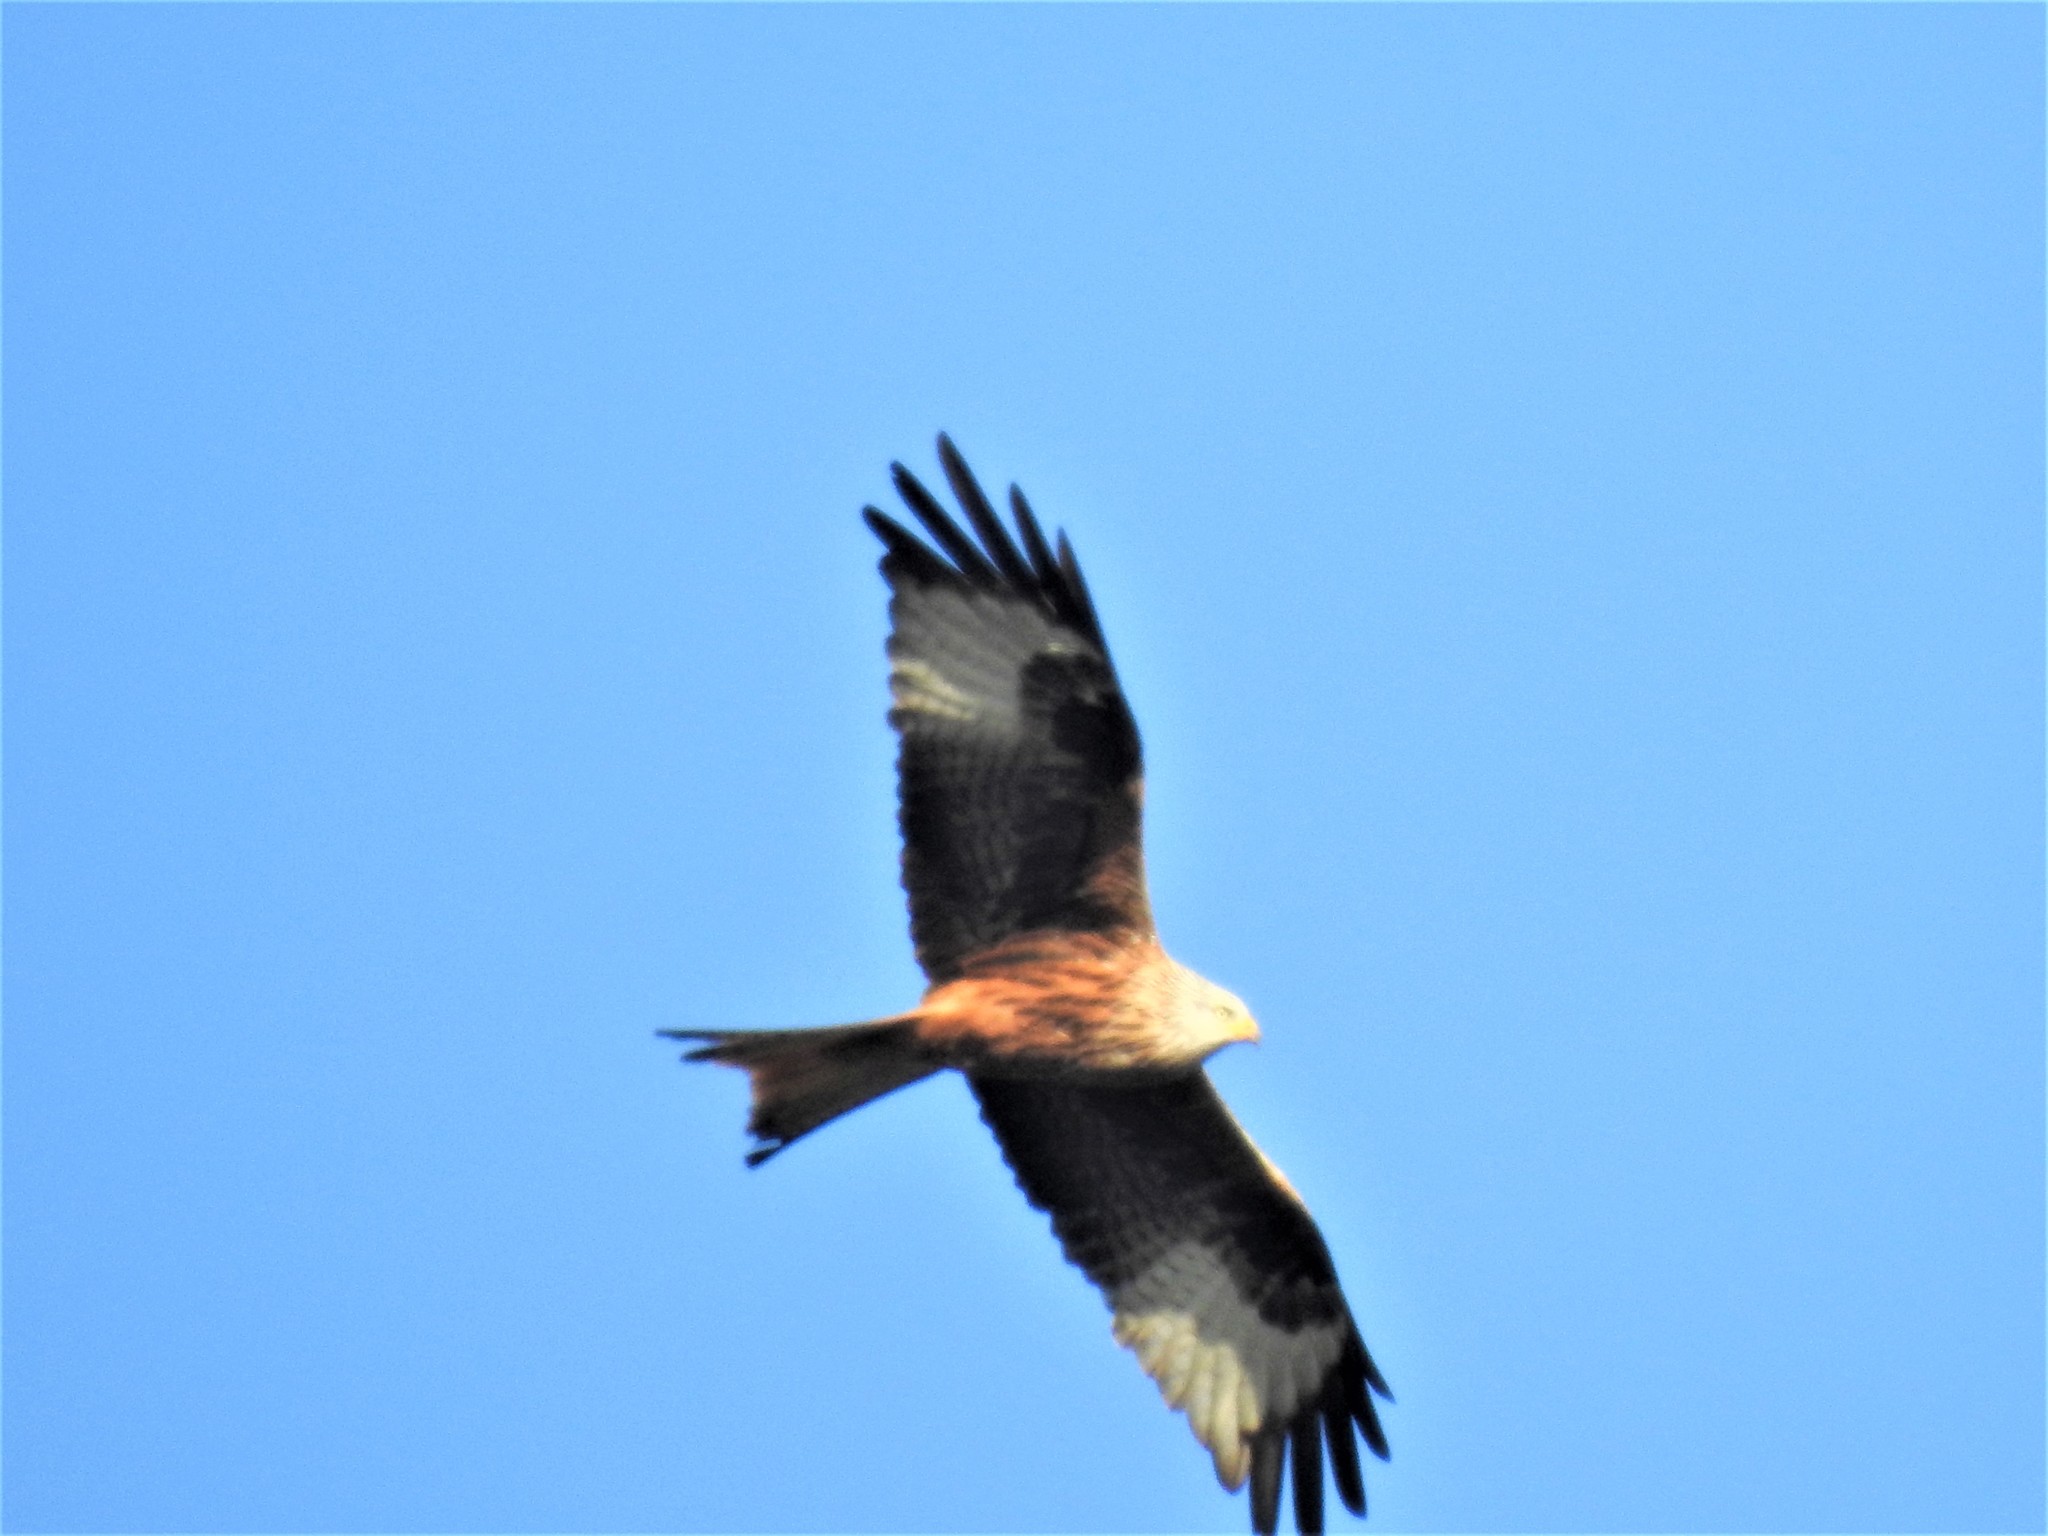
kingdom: Animalia
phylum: Chordata
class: Aves
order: Accipitriformes
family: Accipitridae
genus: Milvus
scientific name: Milvus milvus
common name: Red kite
